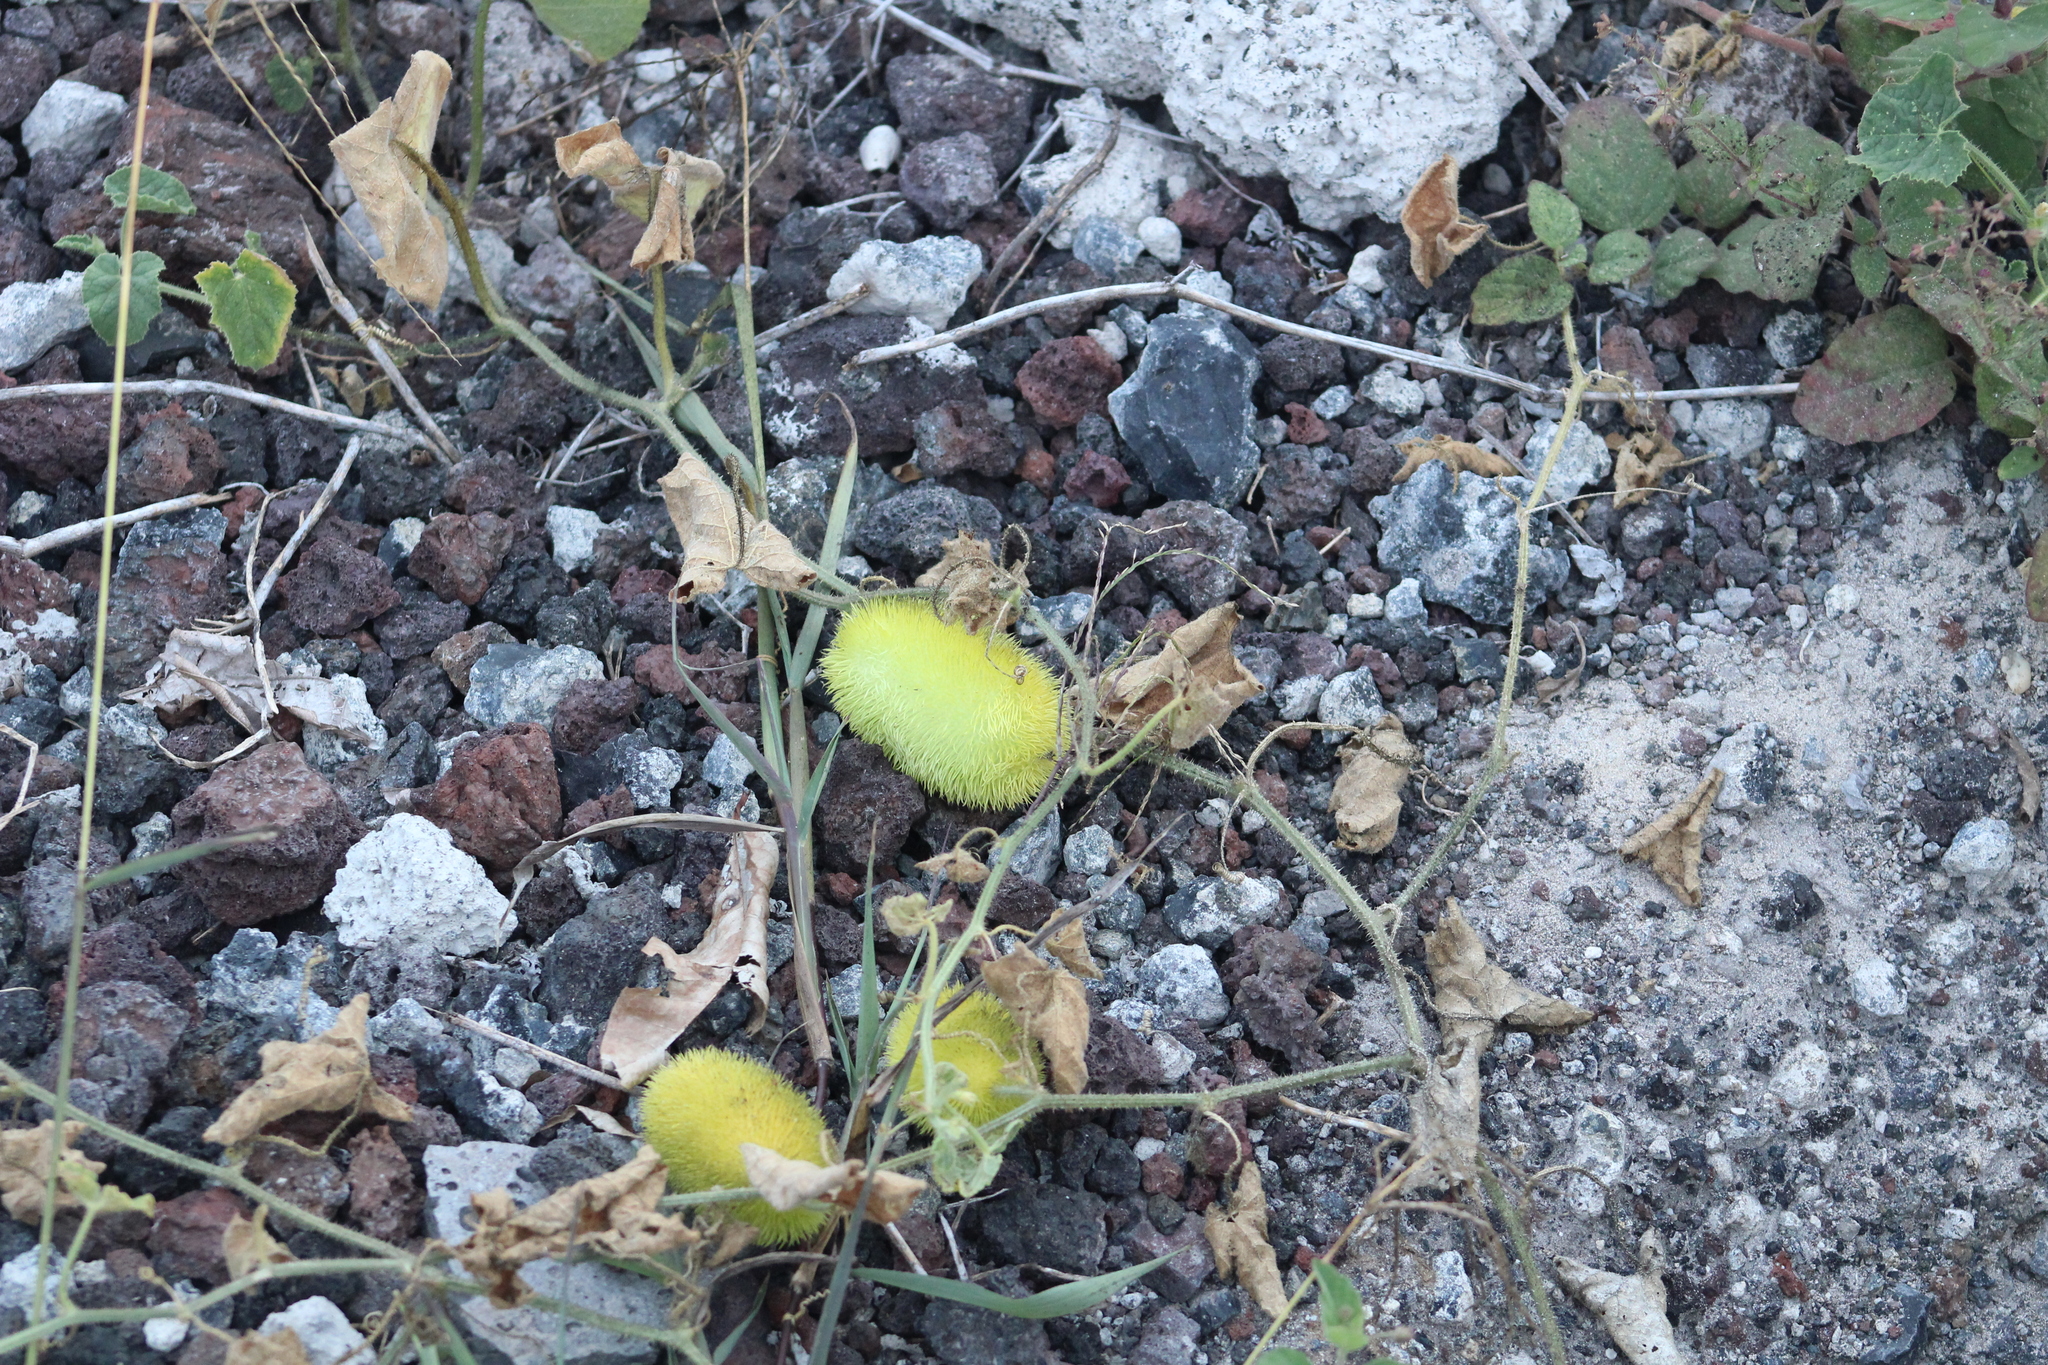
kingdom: Plantae
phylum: Tracheophyta
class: Magnoliopsida
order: Cucurbitales
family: Cucurbitaceae
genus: Cucumis
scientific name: Cucumis dipsaceus
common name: Hedgehog gourd
